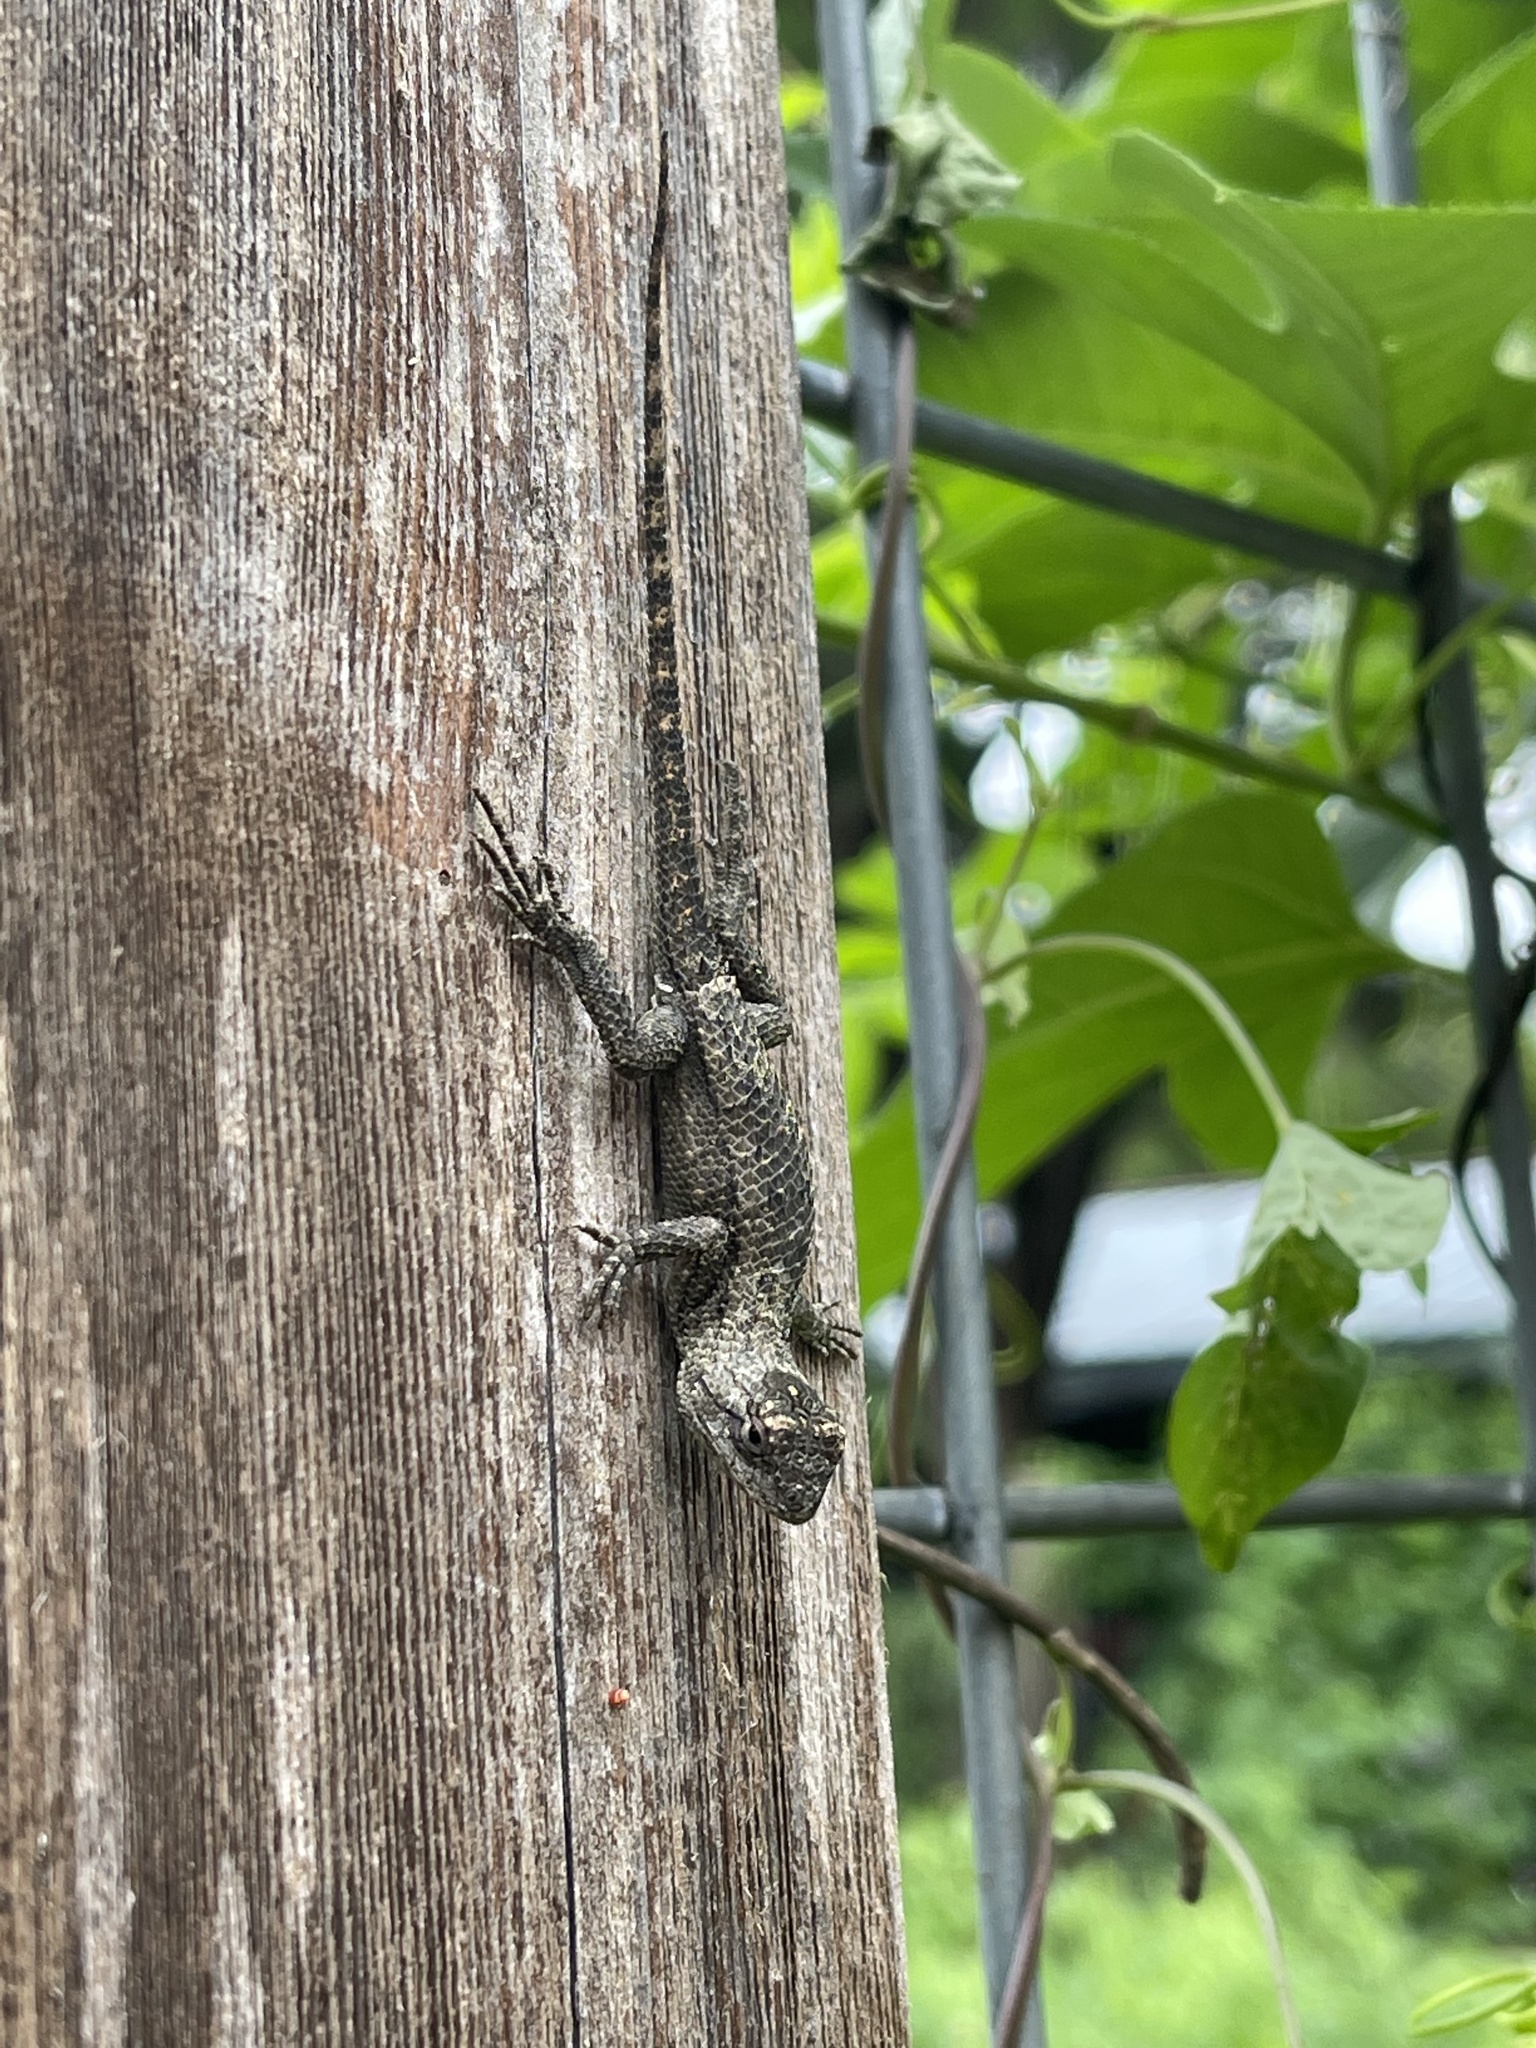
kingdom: Animalia
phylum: Chordata
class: Squamata
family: Phrynosomatidae
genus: Sceloporus
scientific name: Sceloporus olivaceus
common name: Texas spiny lizard
